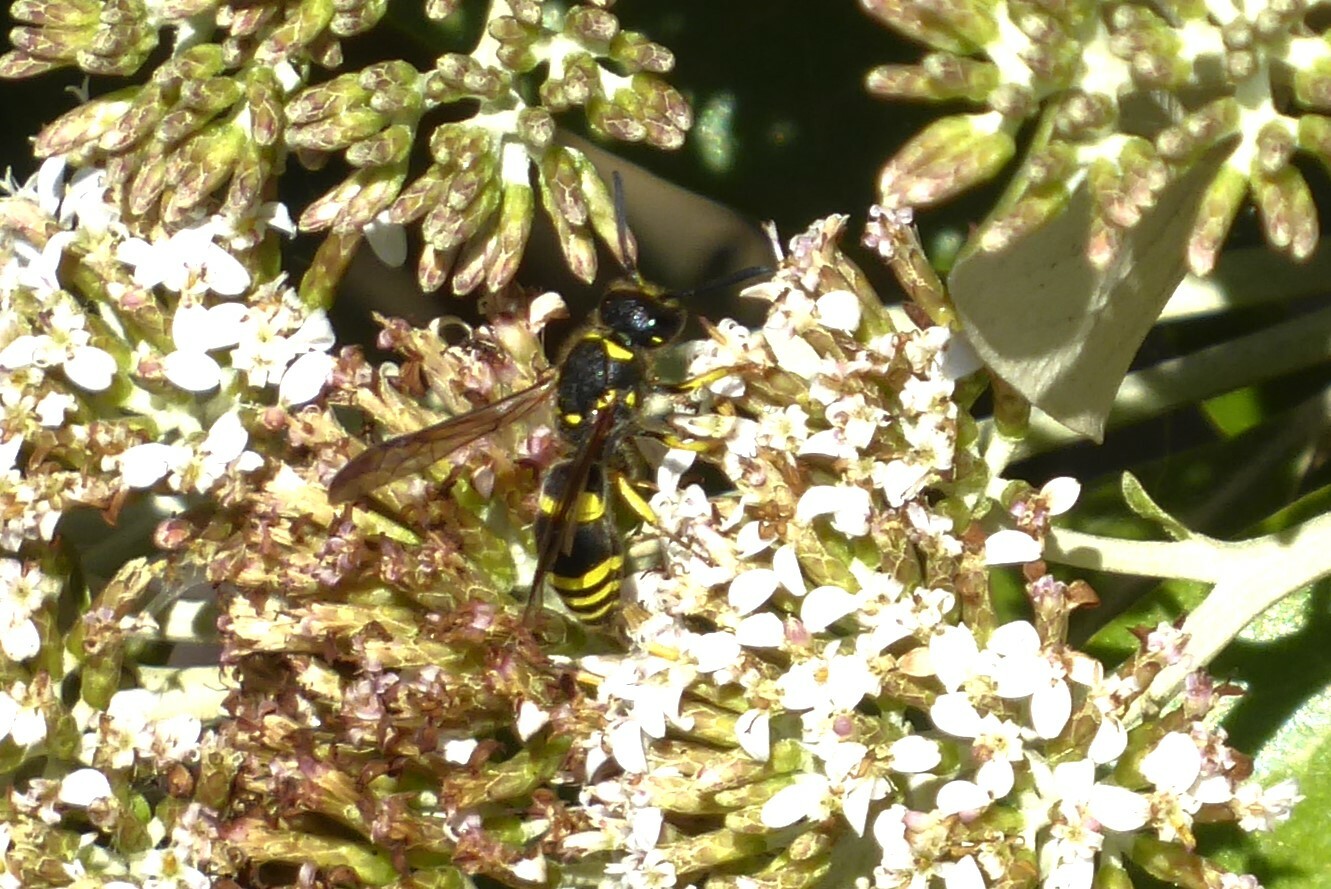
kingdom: Animalia
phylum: Arthropoda
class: Insecta
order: Hymenoptera
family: Vespidae
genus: Ancistrocerus
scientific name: Ancistrocerus gazella
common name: European tube wasp
